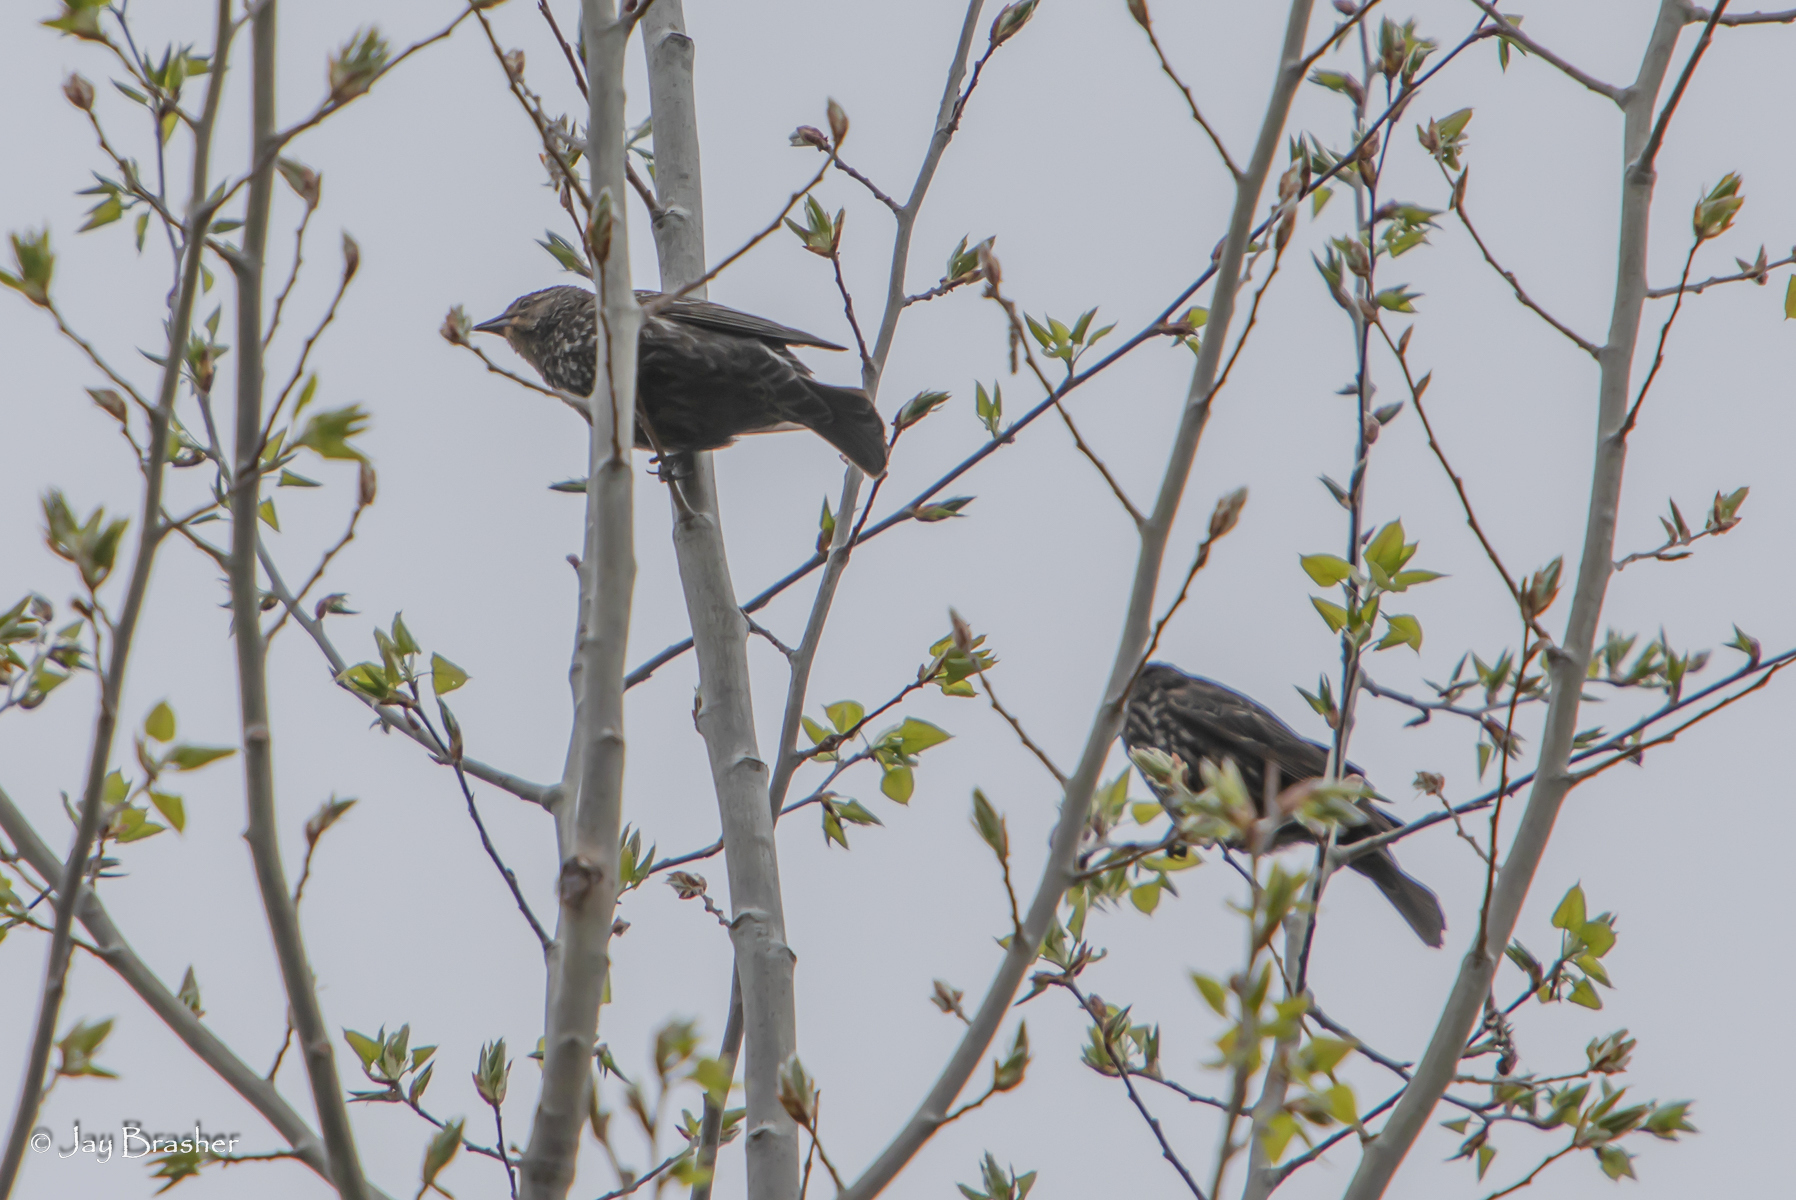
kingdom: Animalia
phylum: Chordata
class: Aves
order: Passeriformes
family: Icteridae
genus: Agelaius
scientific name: Agelaius phoeniceus
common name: Red-winged blackbird
